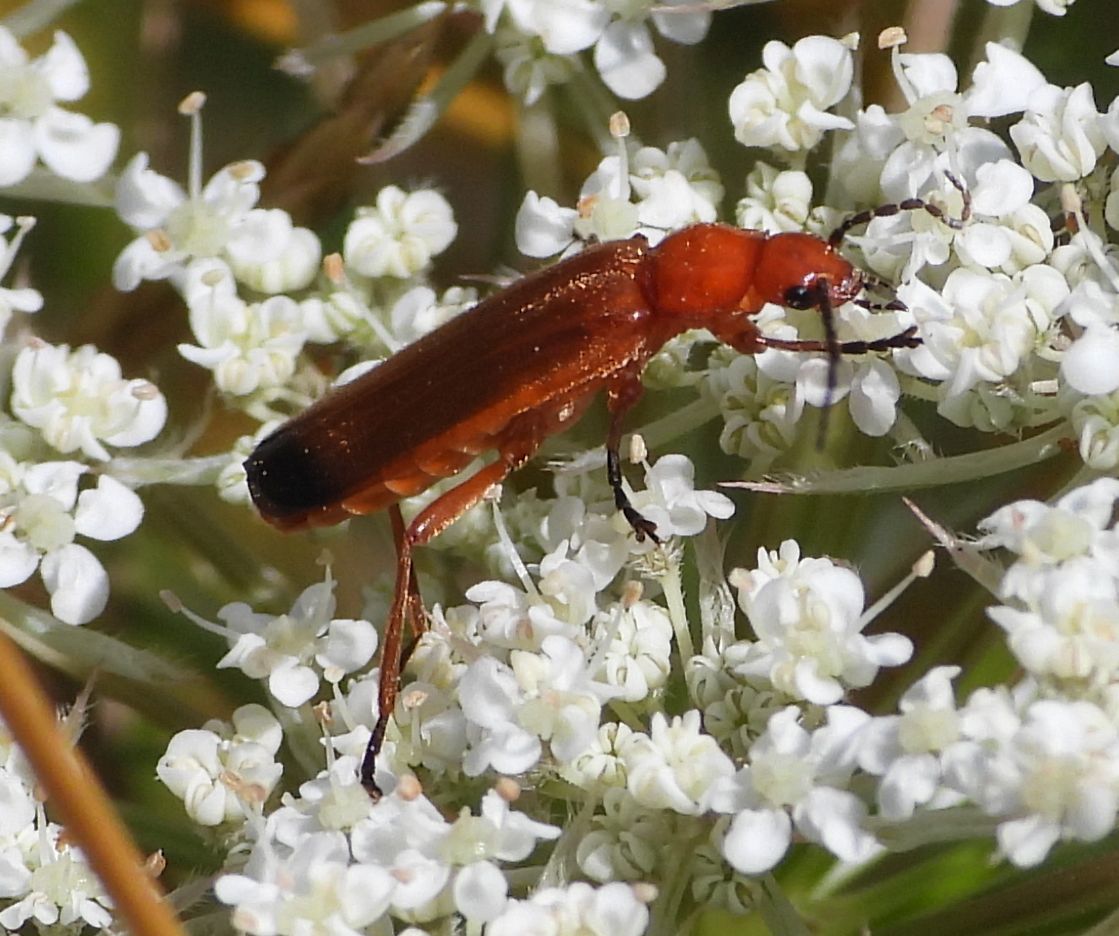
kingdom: Animalia
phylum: Arthropoda
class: Insecta
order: Coleoptera
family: Cantharidae
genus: Rhagonycha
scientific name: Rhagonycha fulva
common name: Common red soldier beetle
